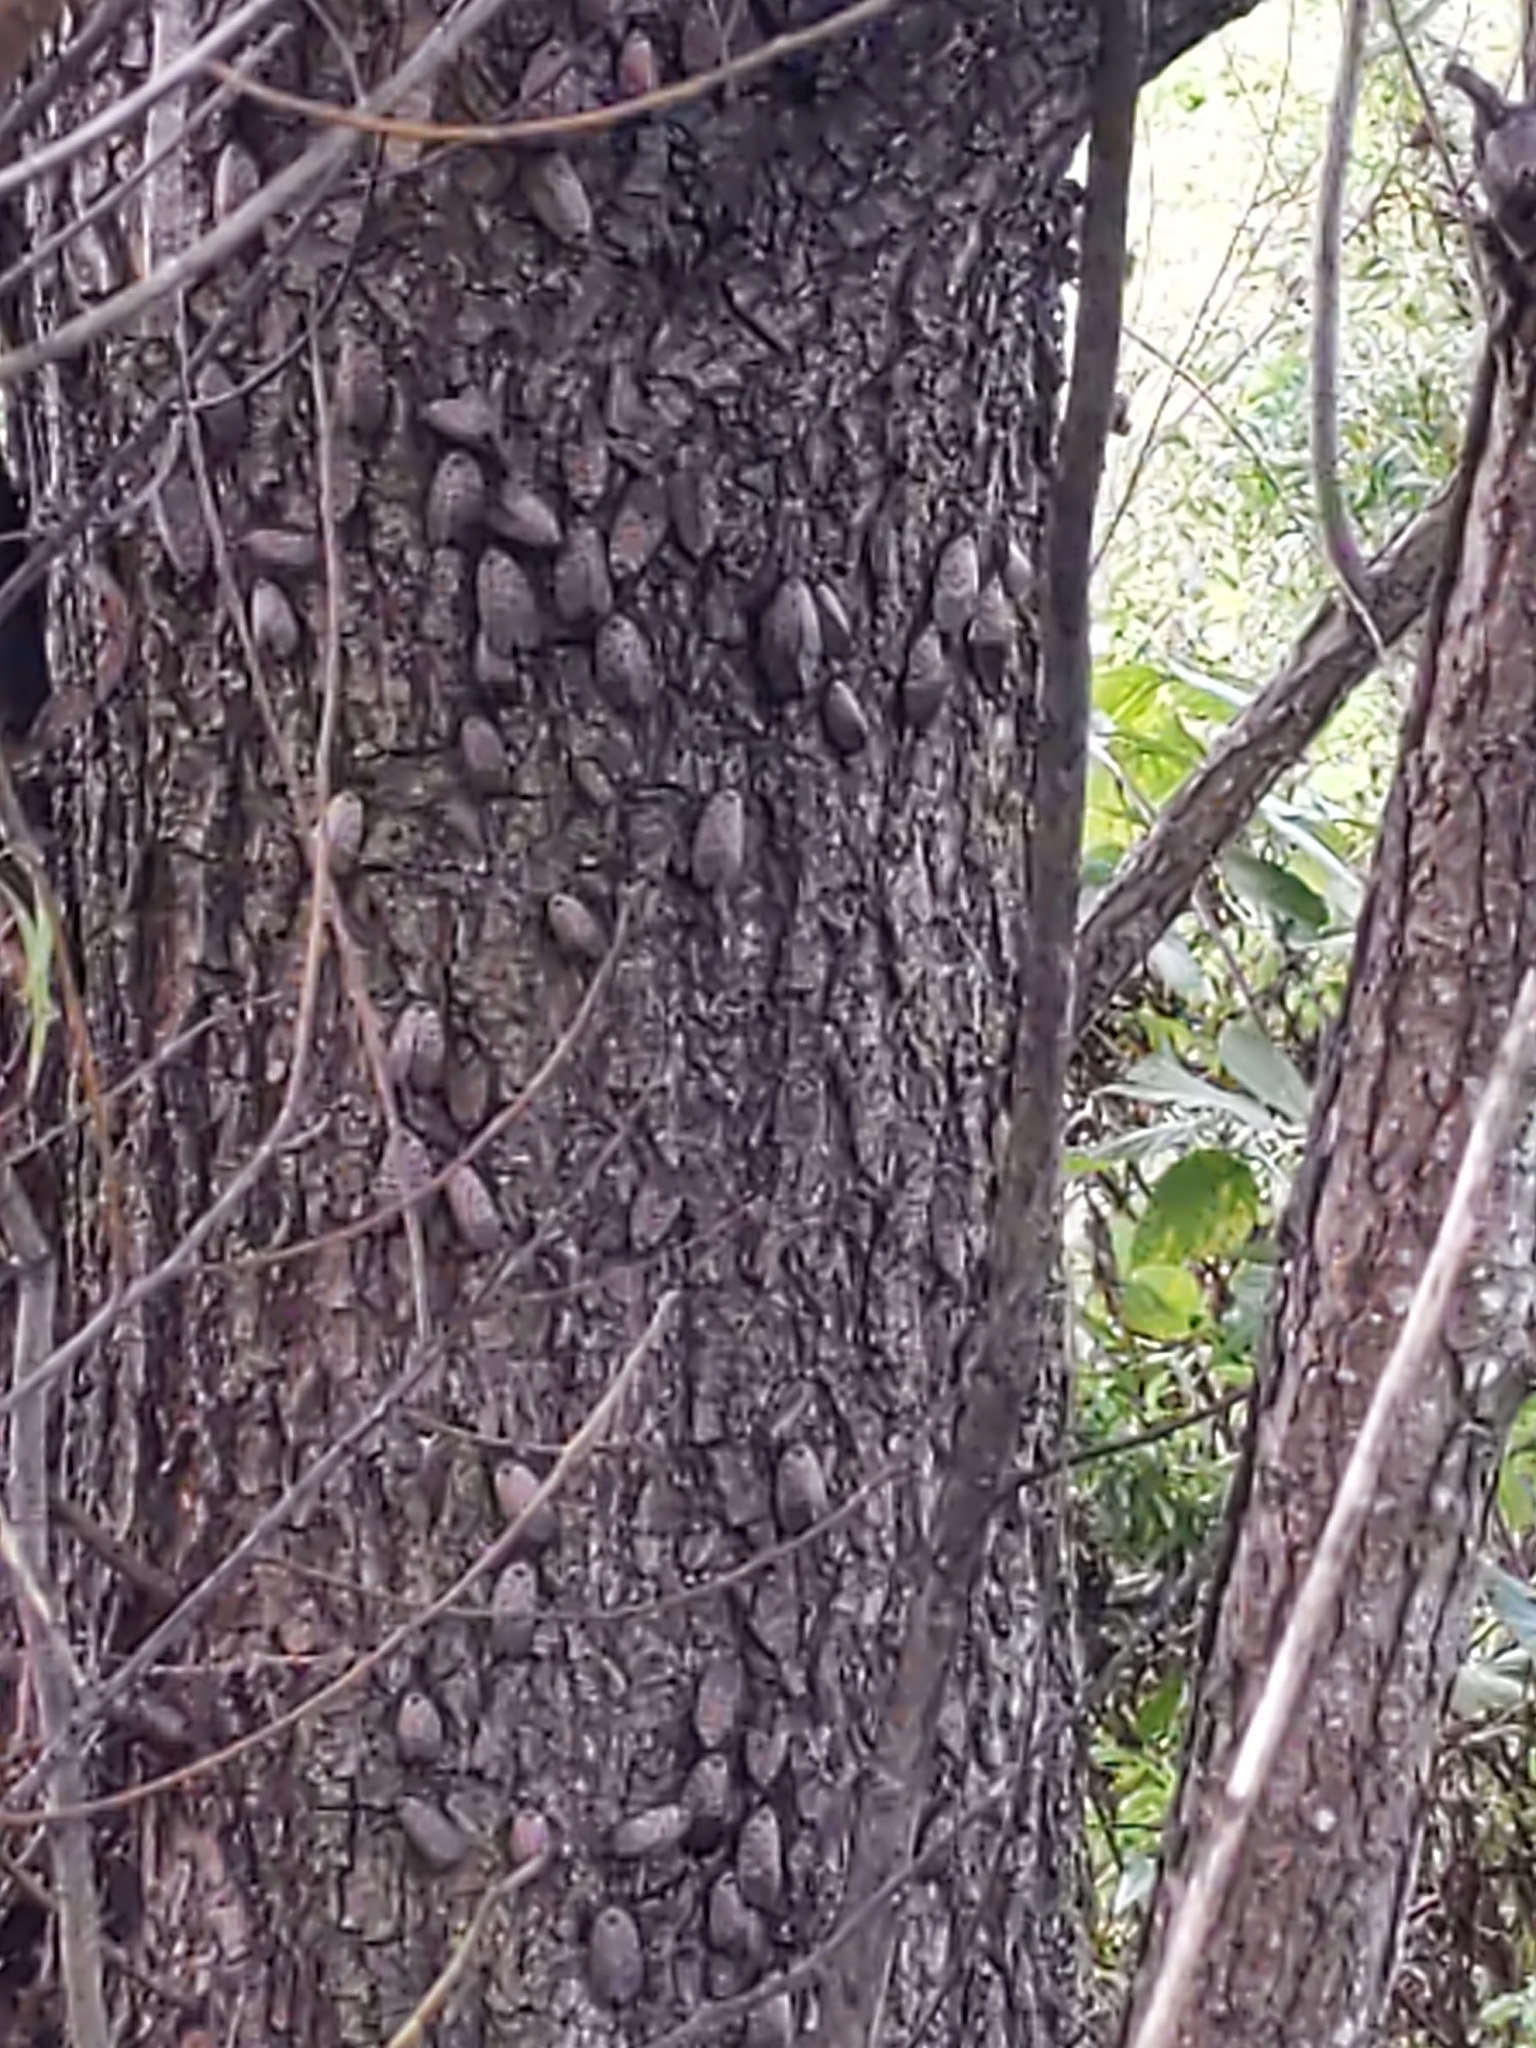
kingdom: Animalia
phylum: Arthropoda
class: Insecta
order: Hemiptera
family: Fulgoridae
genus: Lycorma
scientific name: Lycorma delicatula
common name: Spotted lanternfly
